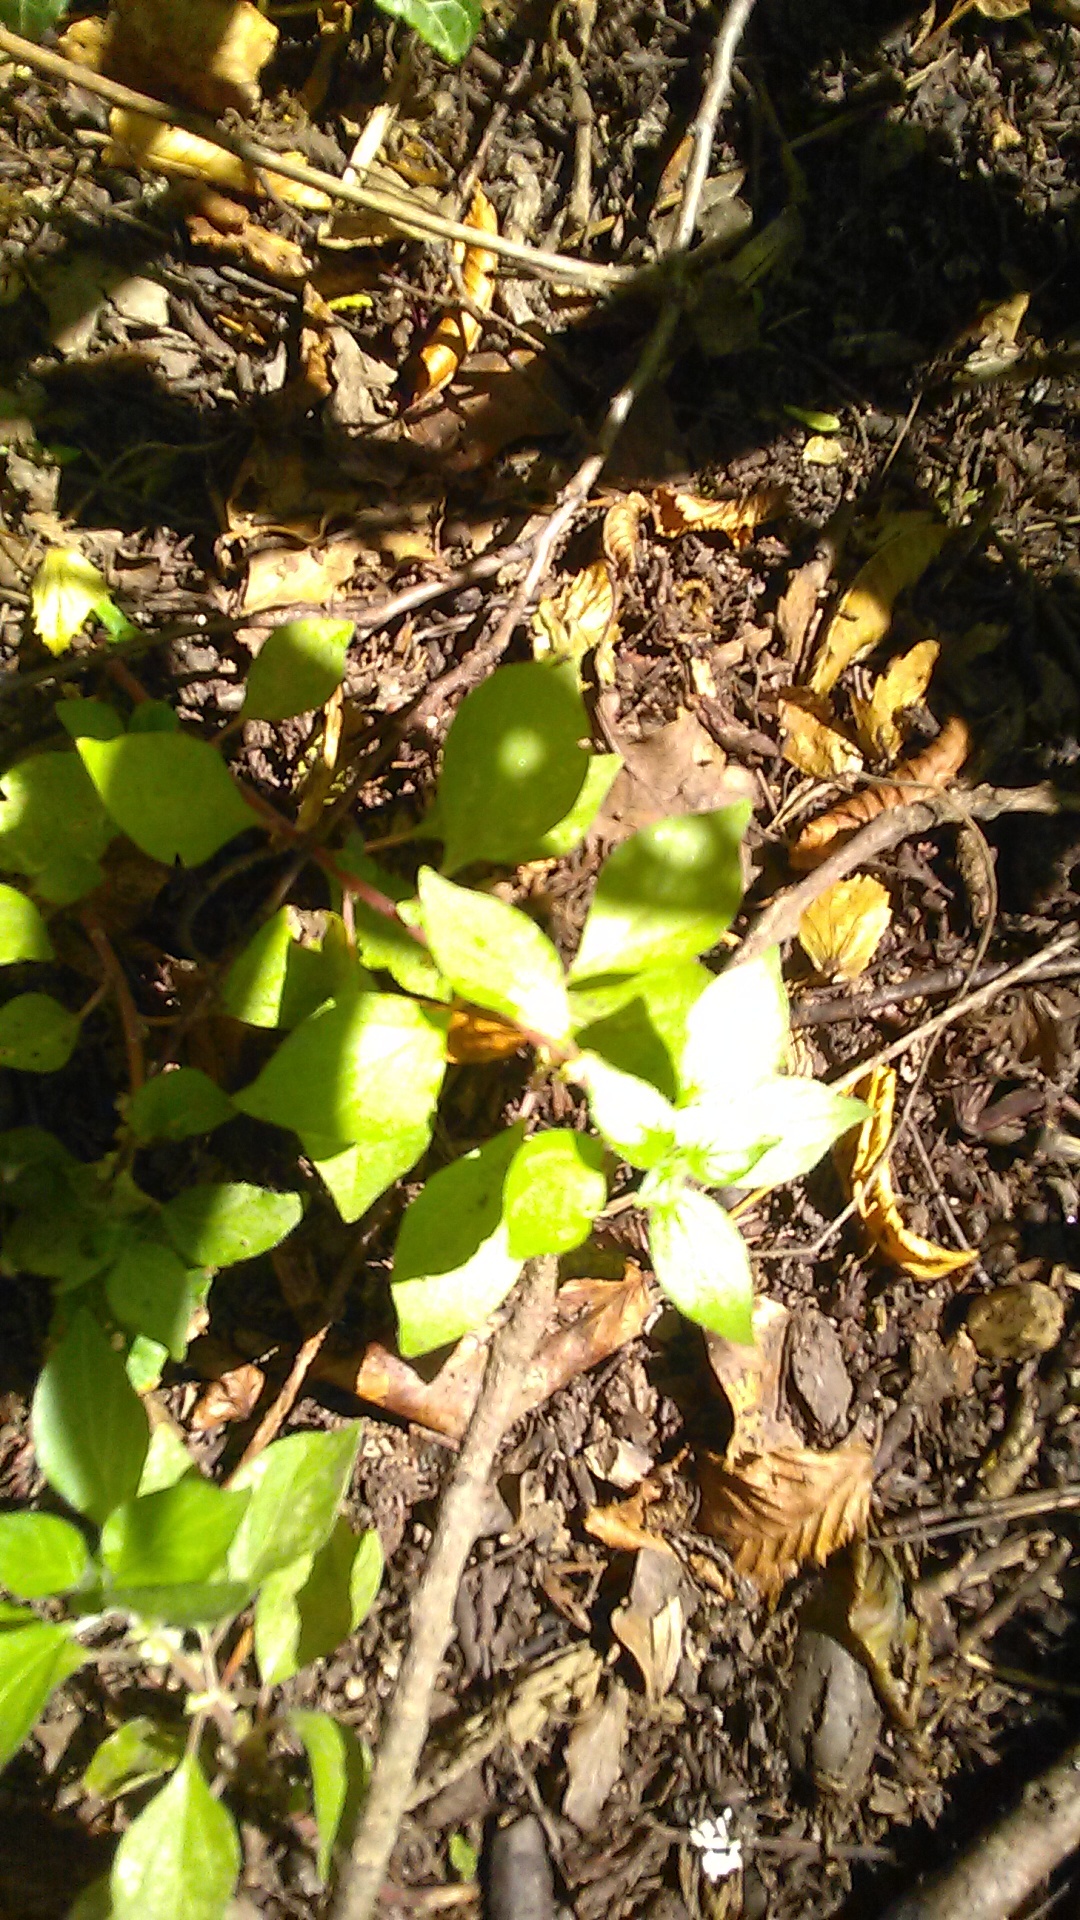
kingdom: Plantae
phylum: Tracheophyta
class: Magnoliopsida
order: Rosales
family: Urticaceae
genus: Parietaria
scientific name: Parietaria judaica
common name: Pellitory-of-the-wall
